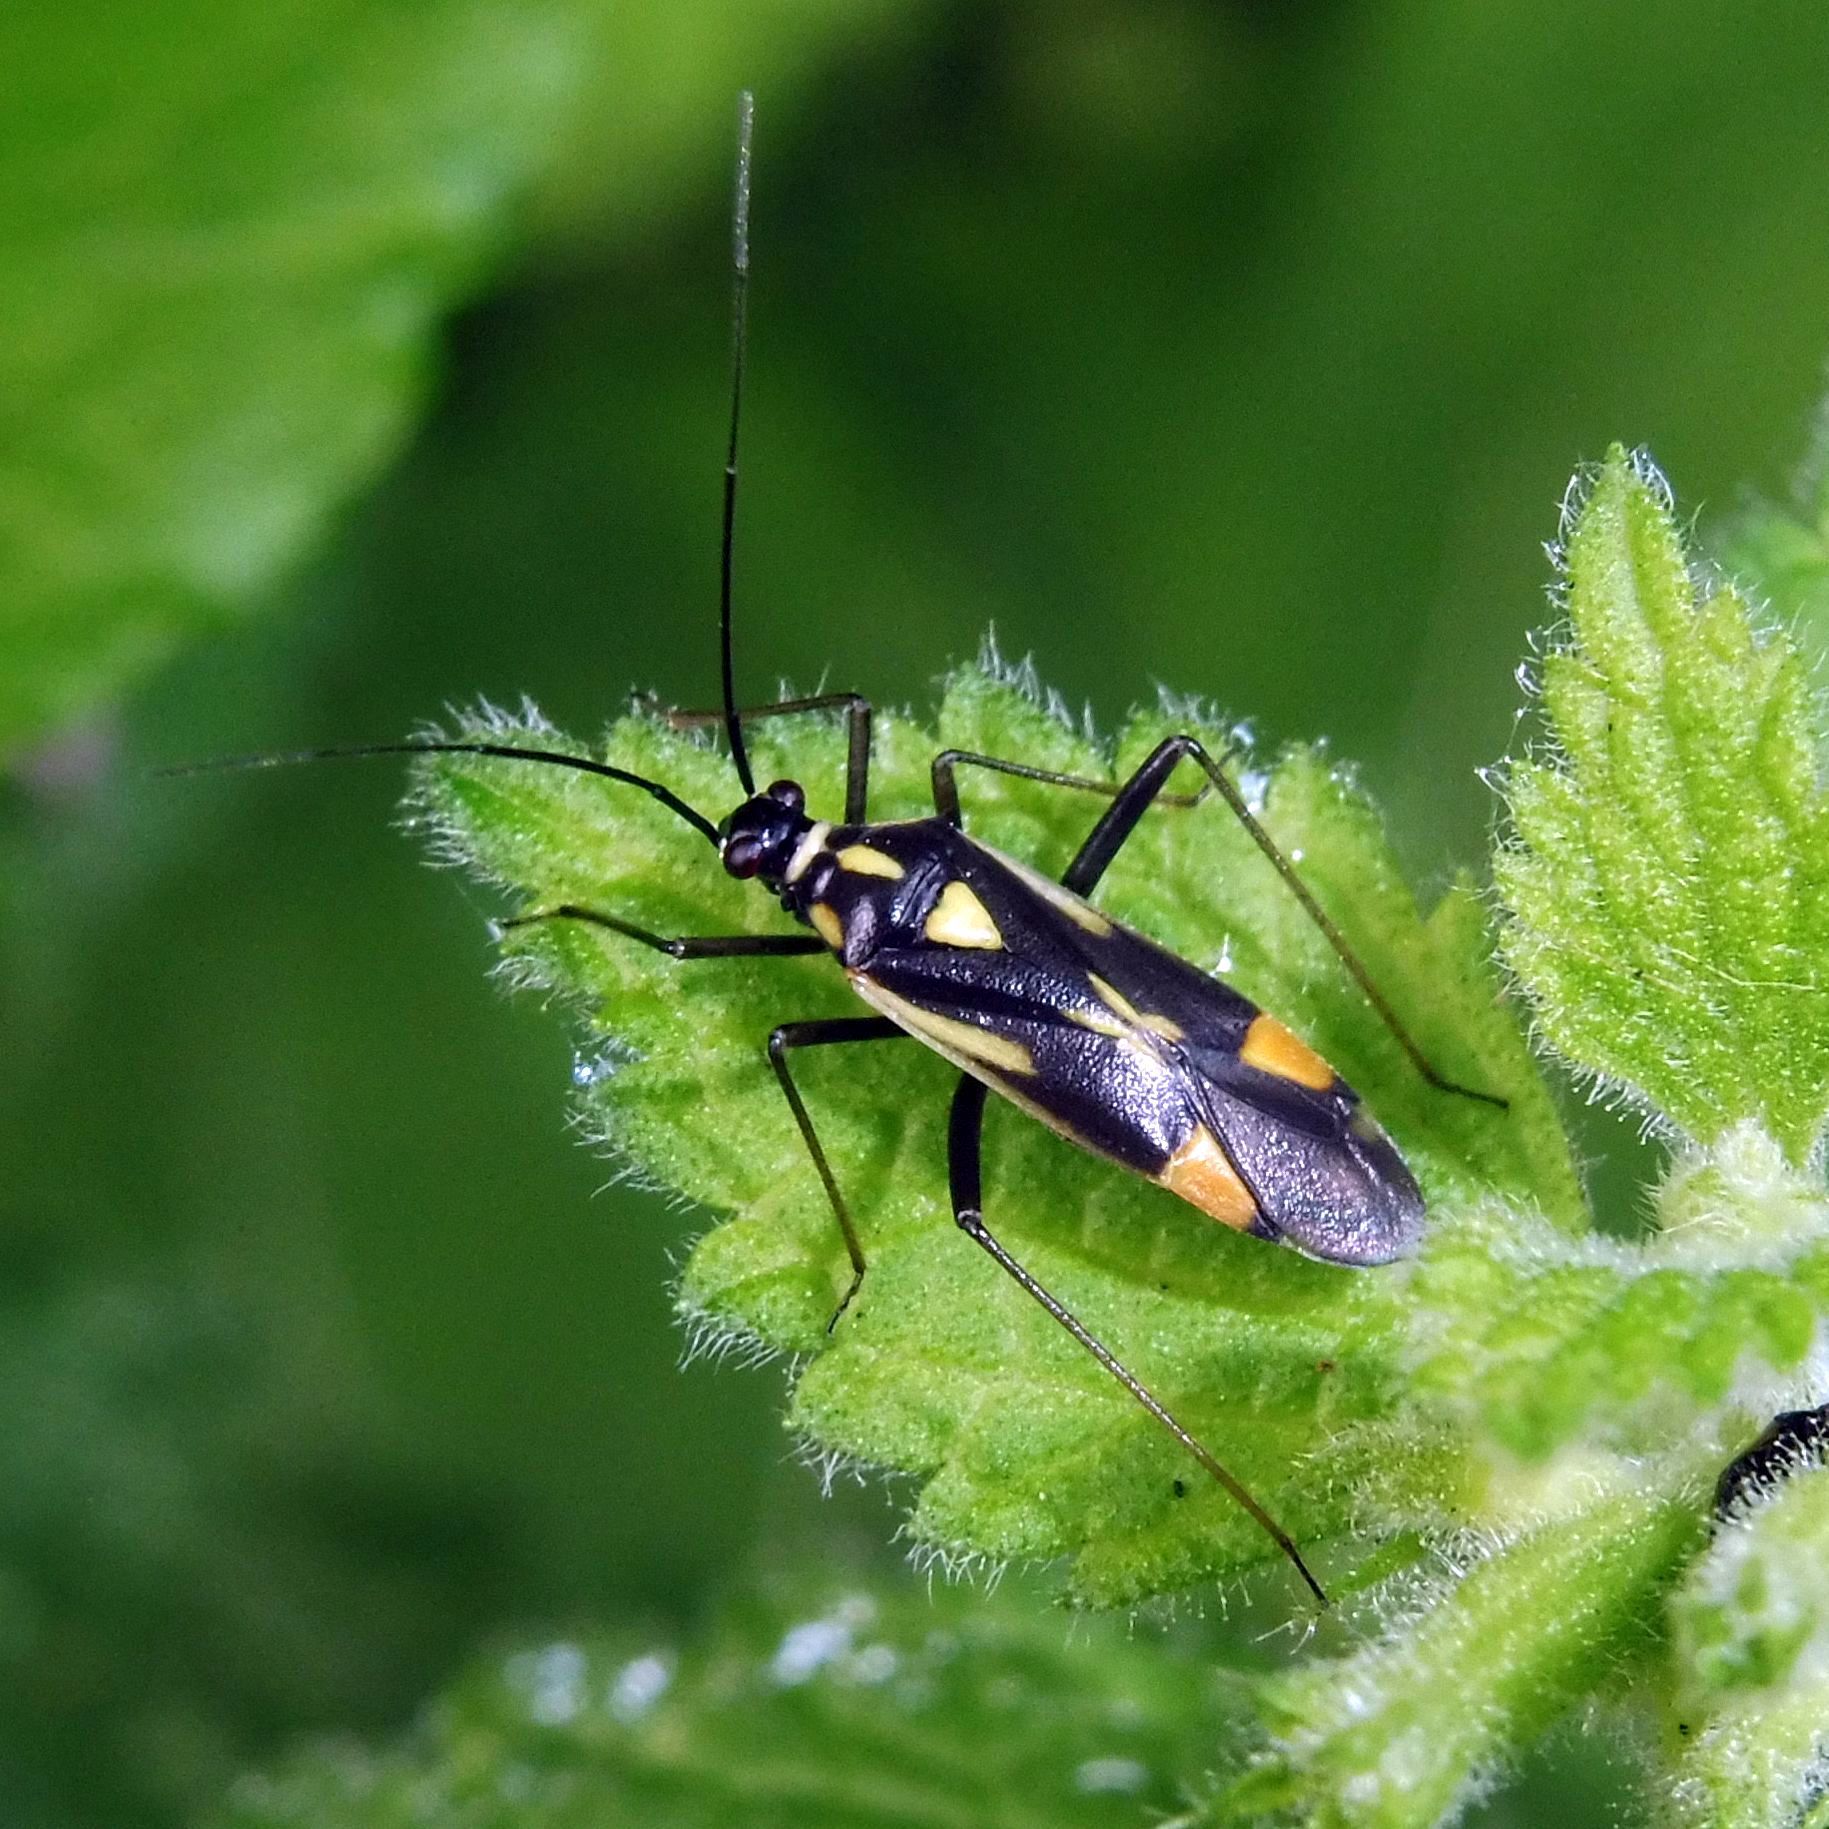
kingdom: Animalia
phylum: Arthropoda
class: Insecta
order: Hemiptera
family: Miridae
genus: Grypocoris
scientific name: Grypocoris stysi
